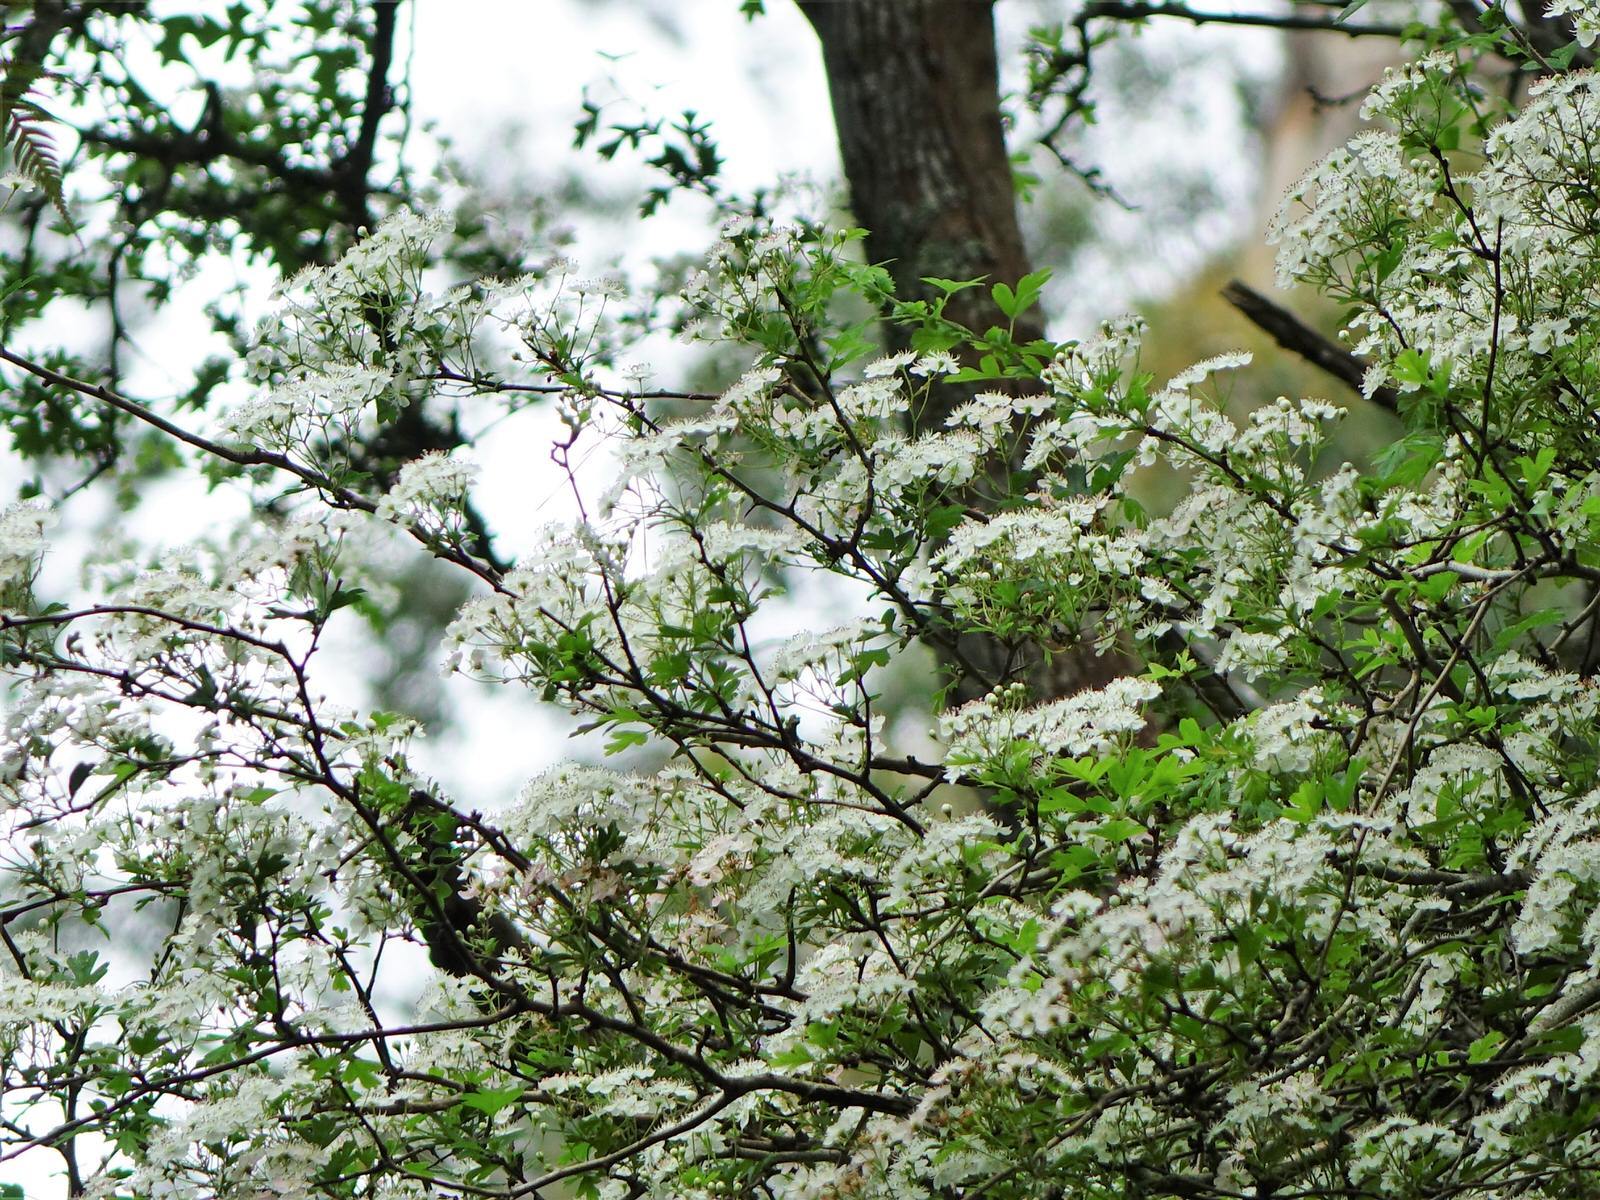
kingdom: Plantae
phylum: Tracheophyta
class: Magnoliopsida
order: Rosales
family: Rosaceae
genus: Crataegus
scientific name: Crataegus monogyna
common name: Hawthorn
